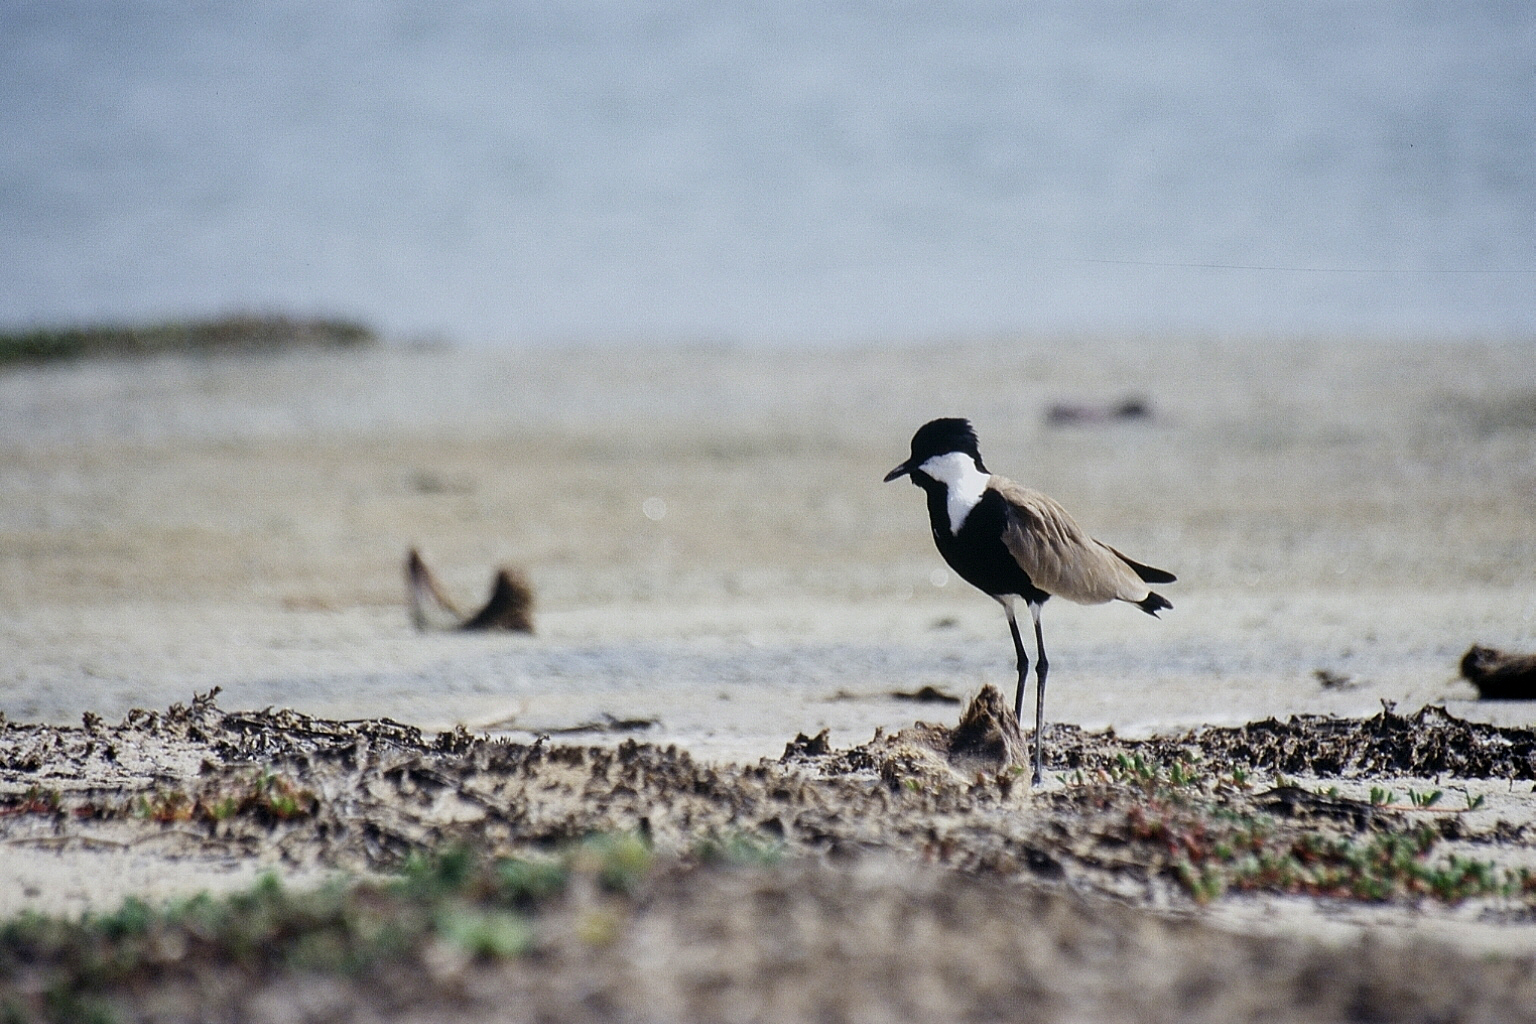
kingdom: Animalia
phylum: Chordata
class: Aves
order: Charadriiformes
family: Charadriidae
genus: Vanellus
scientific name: Vanellus spinosus
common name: Spur-winged lapwing
